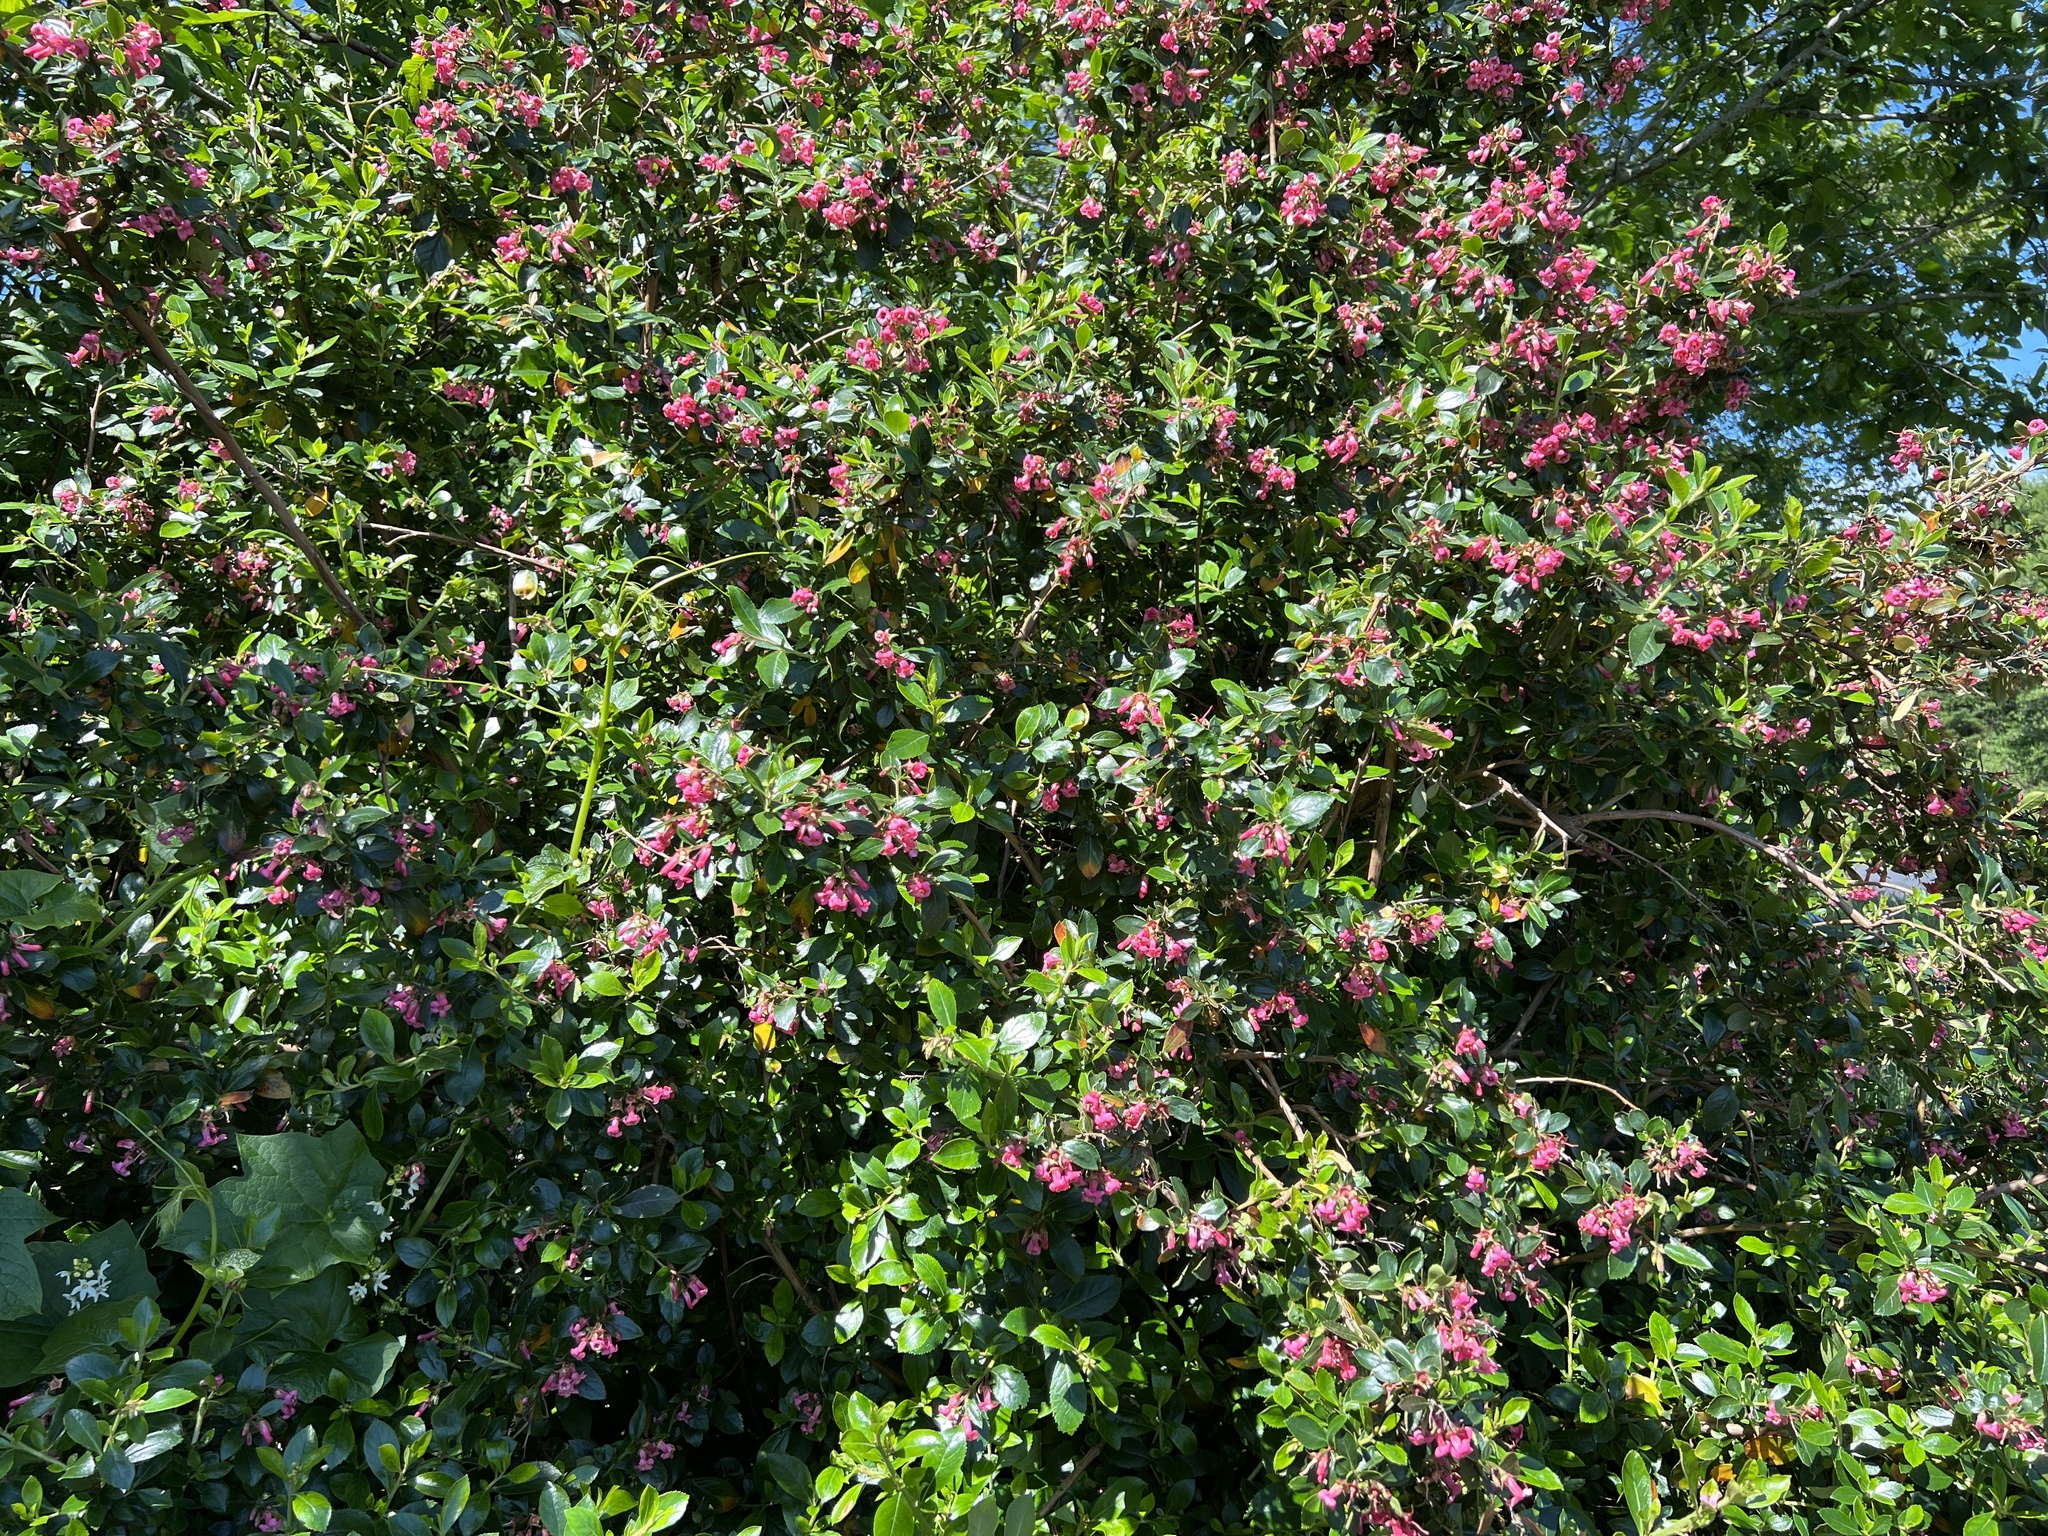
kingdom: Plantae
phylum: Tracheophyta
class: Magnoliopsida
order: Escalloniales
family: Escalloniaceae
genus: Escallonia
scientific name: Escallonia rubra
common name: Redclaws
